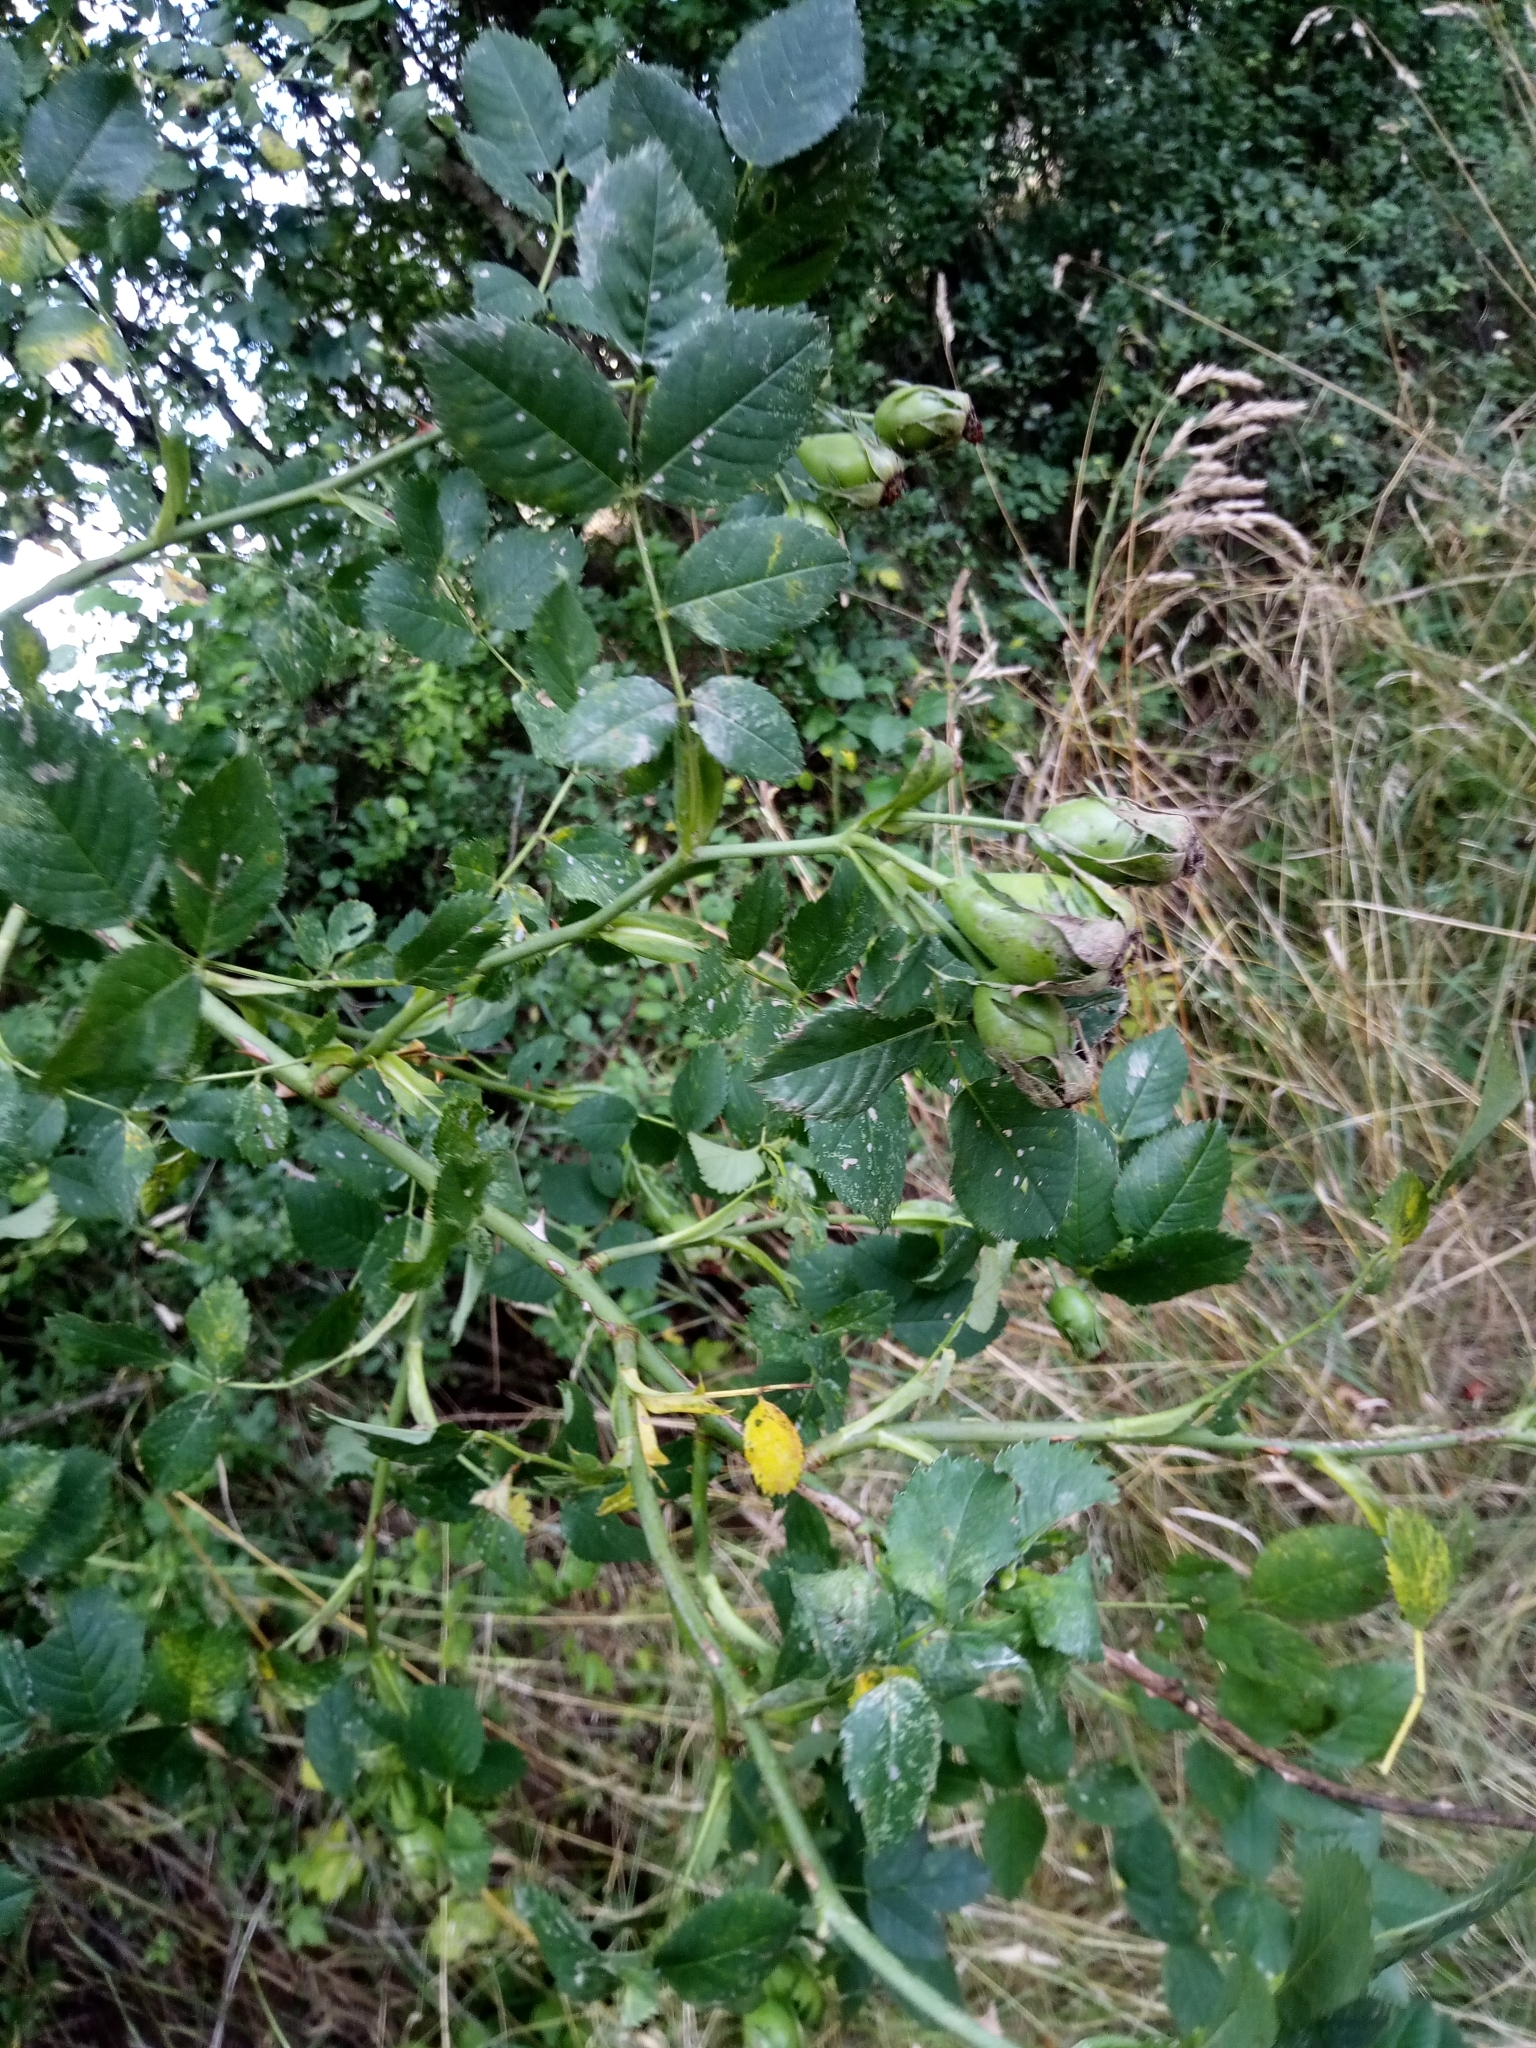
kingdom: Plantae
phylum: Tracheophyta
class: Magnoliopsida
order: Rosales
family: Rosaceae
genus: Rosa
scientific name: Rosa canina
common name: Dog rose
